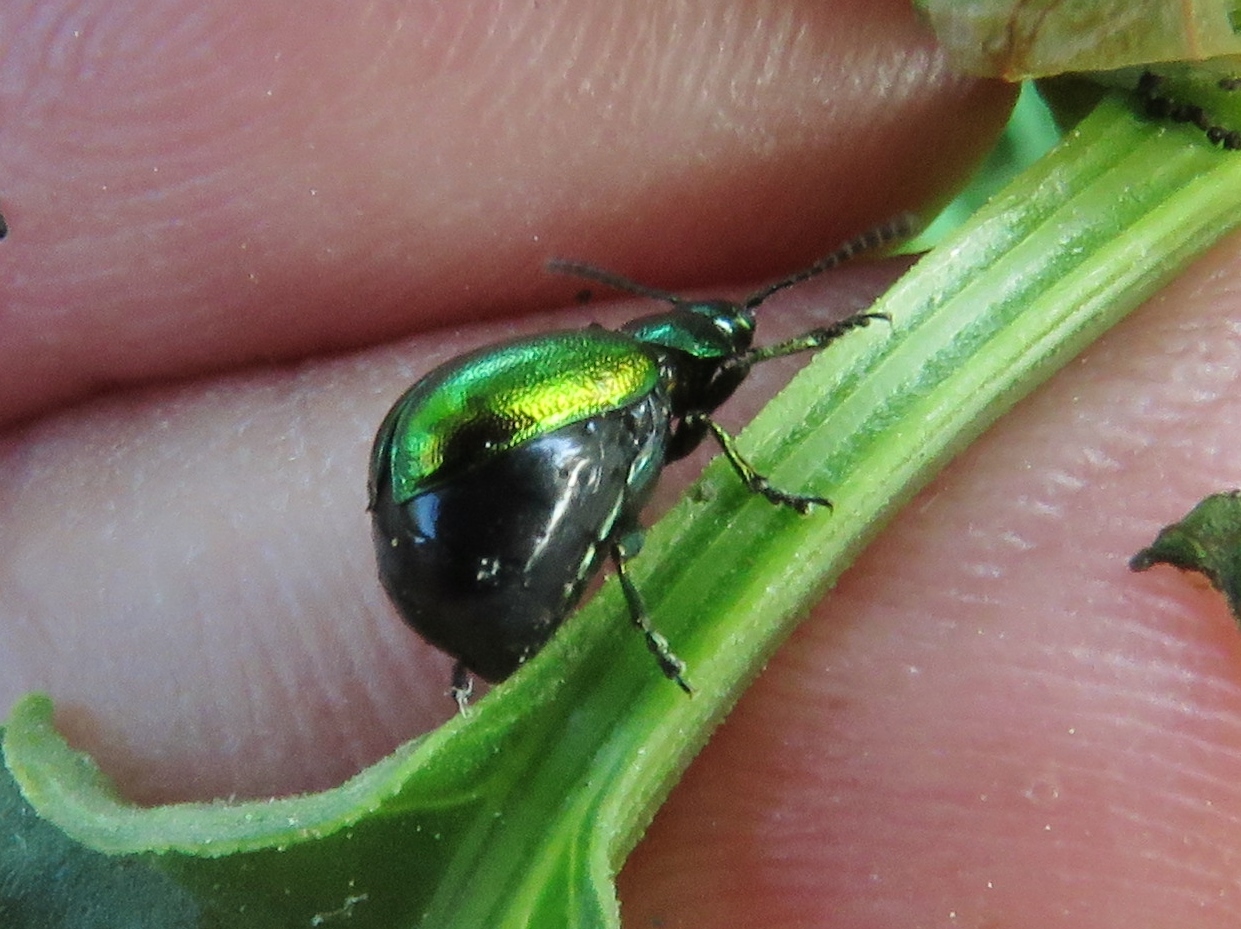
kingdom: Animalia
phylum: Arthropoda
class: Insecta
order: Coleoptera
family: Chrysomelidae
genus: Gastrophysa
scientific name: Gastrophysa viridula
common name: Green dock beetle
